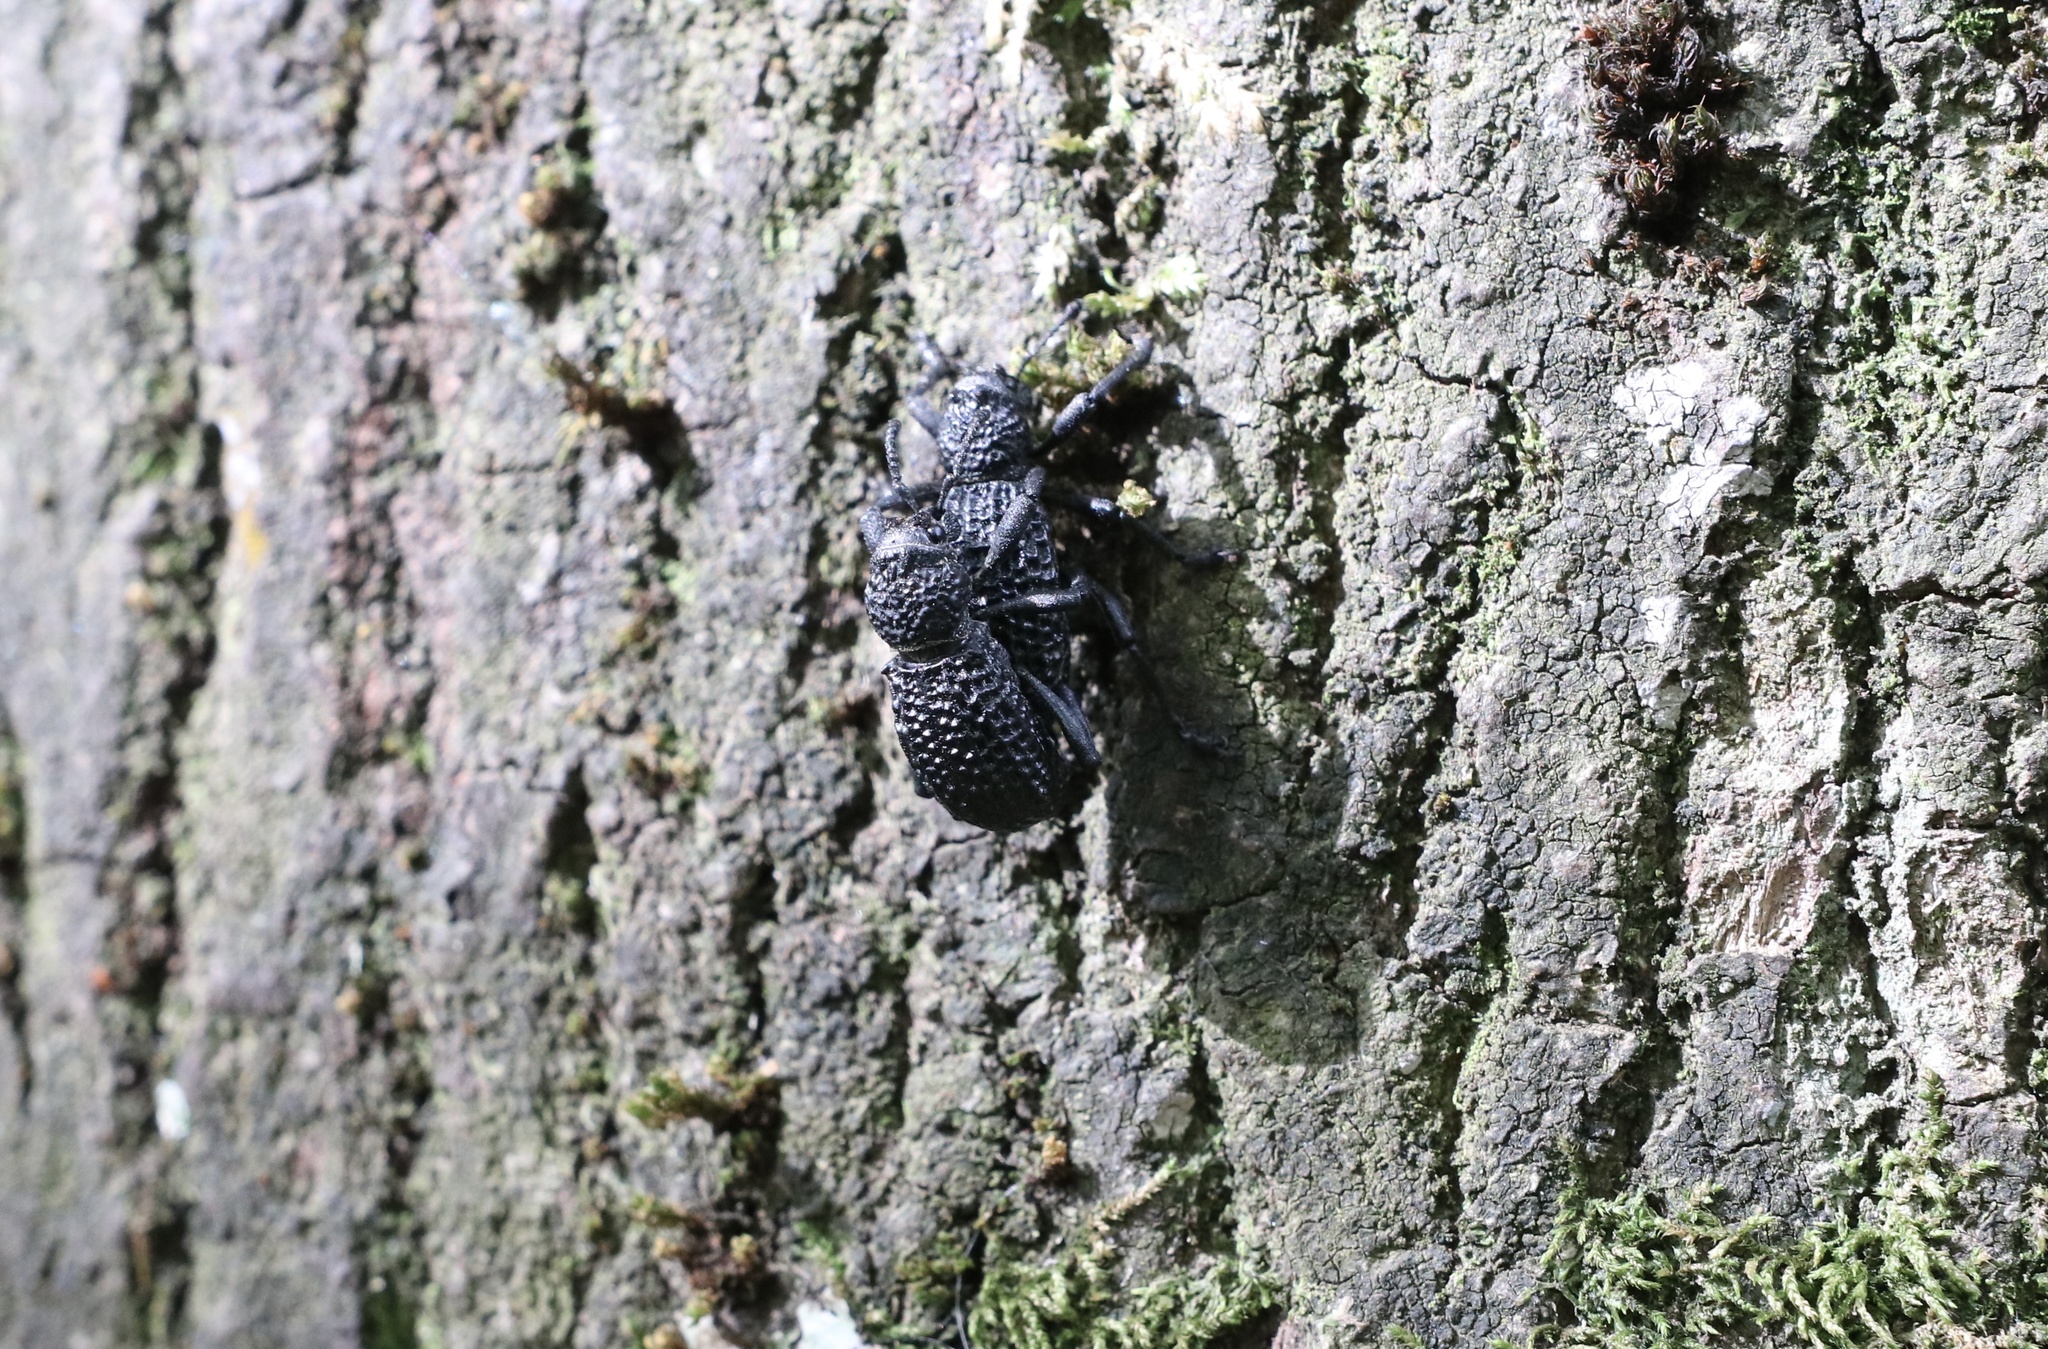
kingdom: Animalia
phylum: Arthropoda
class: Insecta
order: Coleoptera
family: Curculionidae
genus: Aegorhinus
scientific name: Aegorhinus superciliosus
